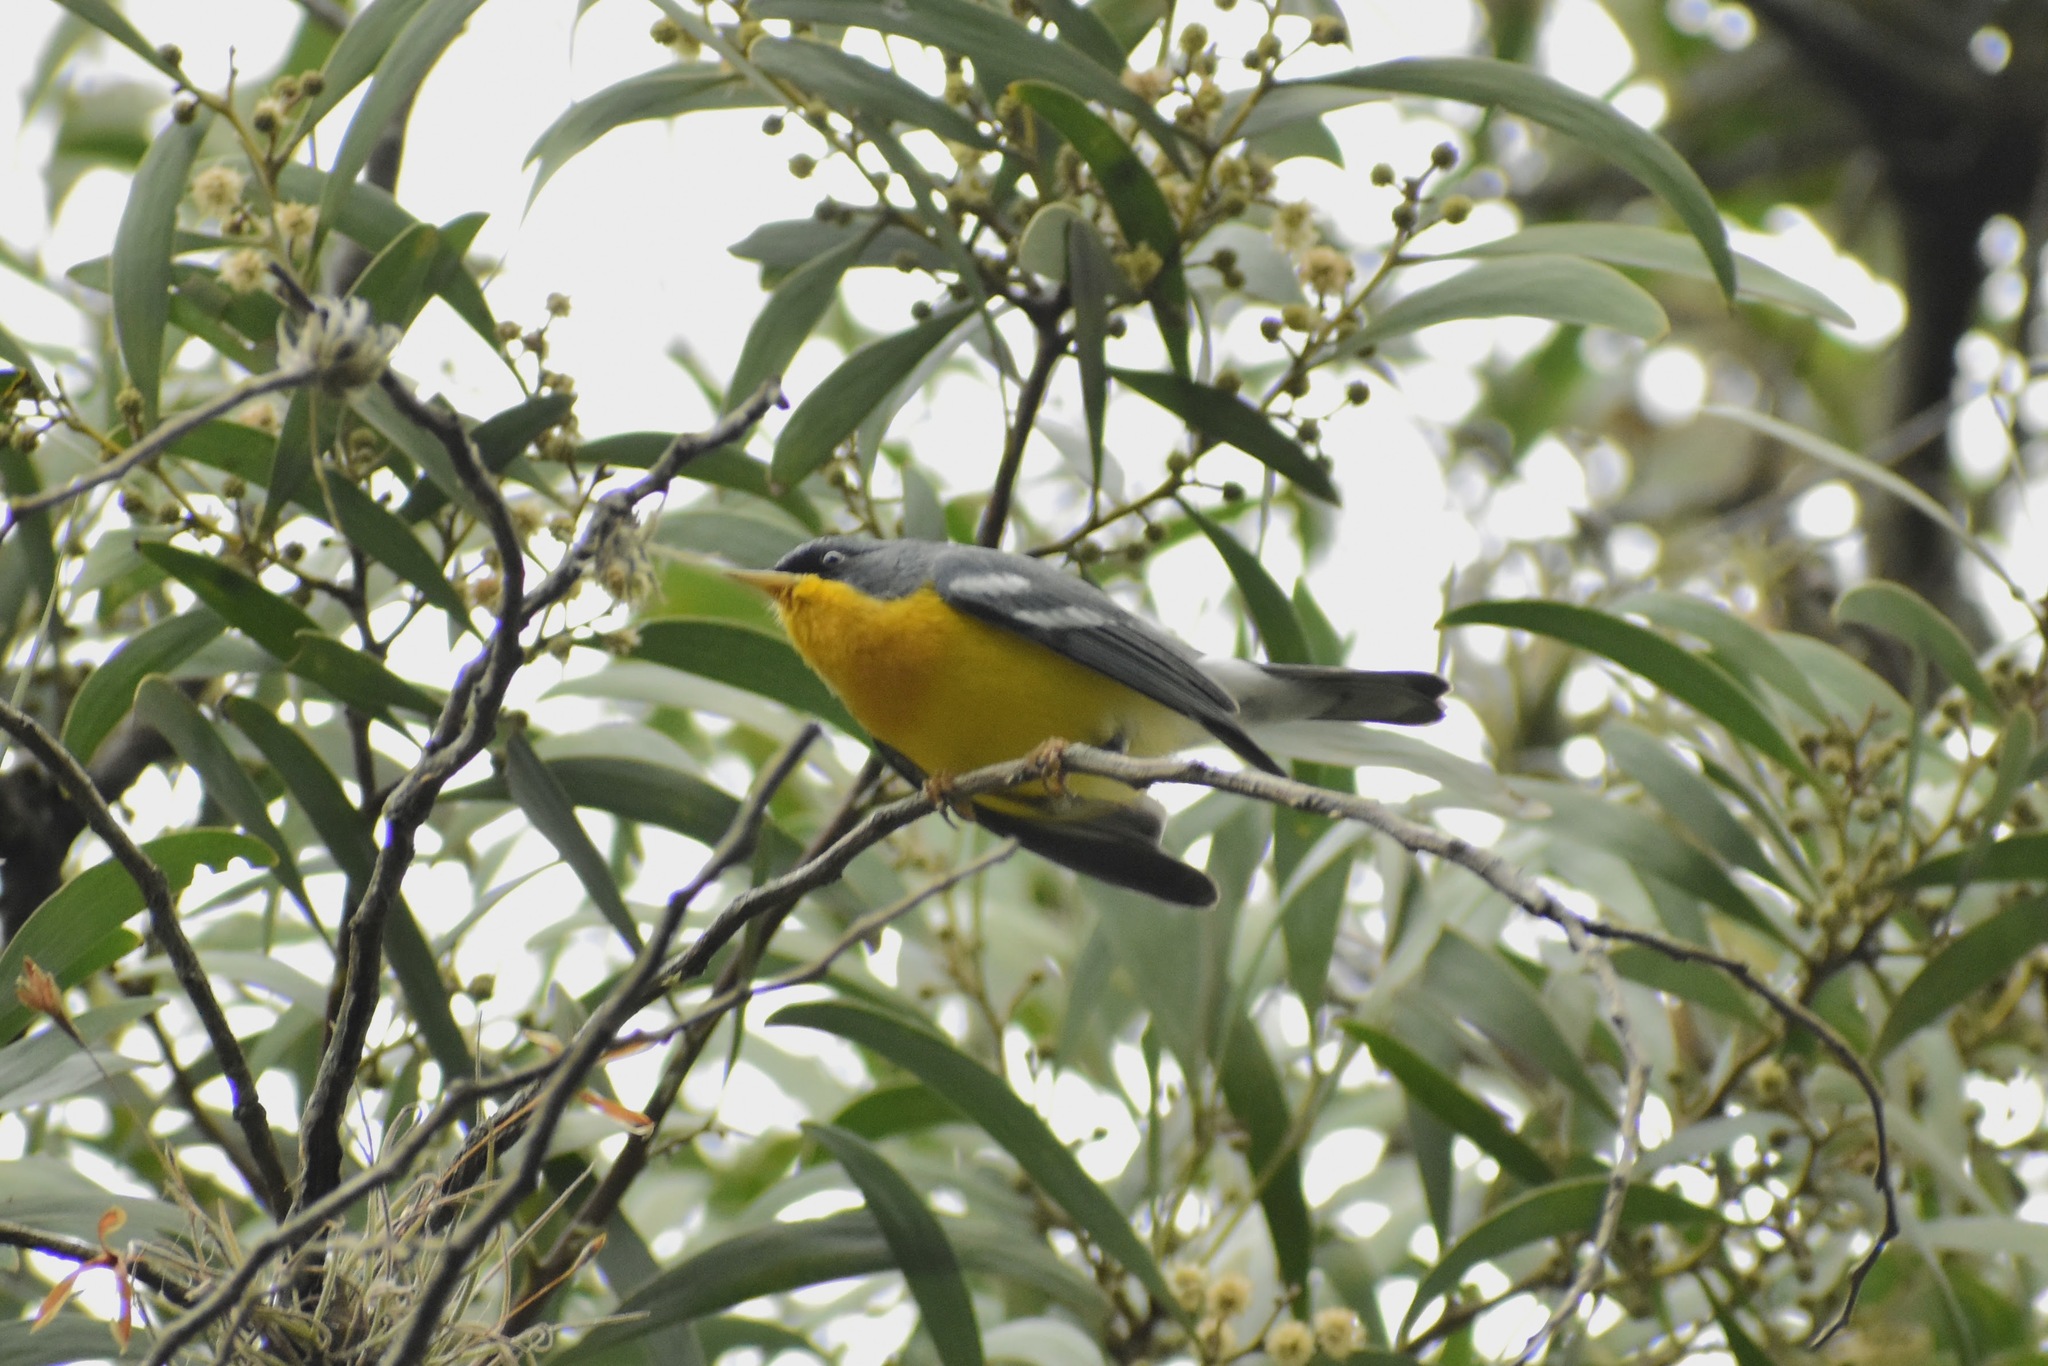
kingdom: Animalia
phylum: Chordata
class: Aves
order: Passeriformes
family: Parulidae
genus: Setophaga
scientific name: Setophaga pitiayumi
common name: Tropical parula
